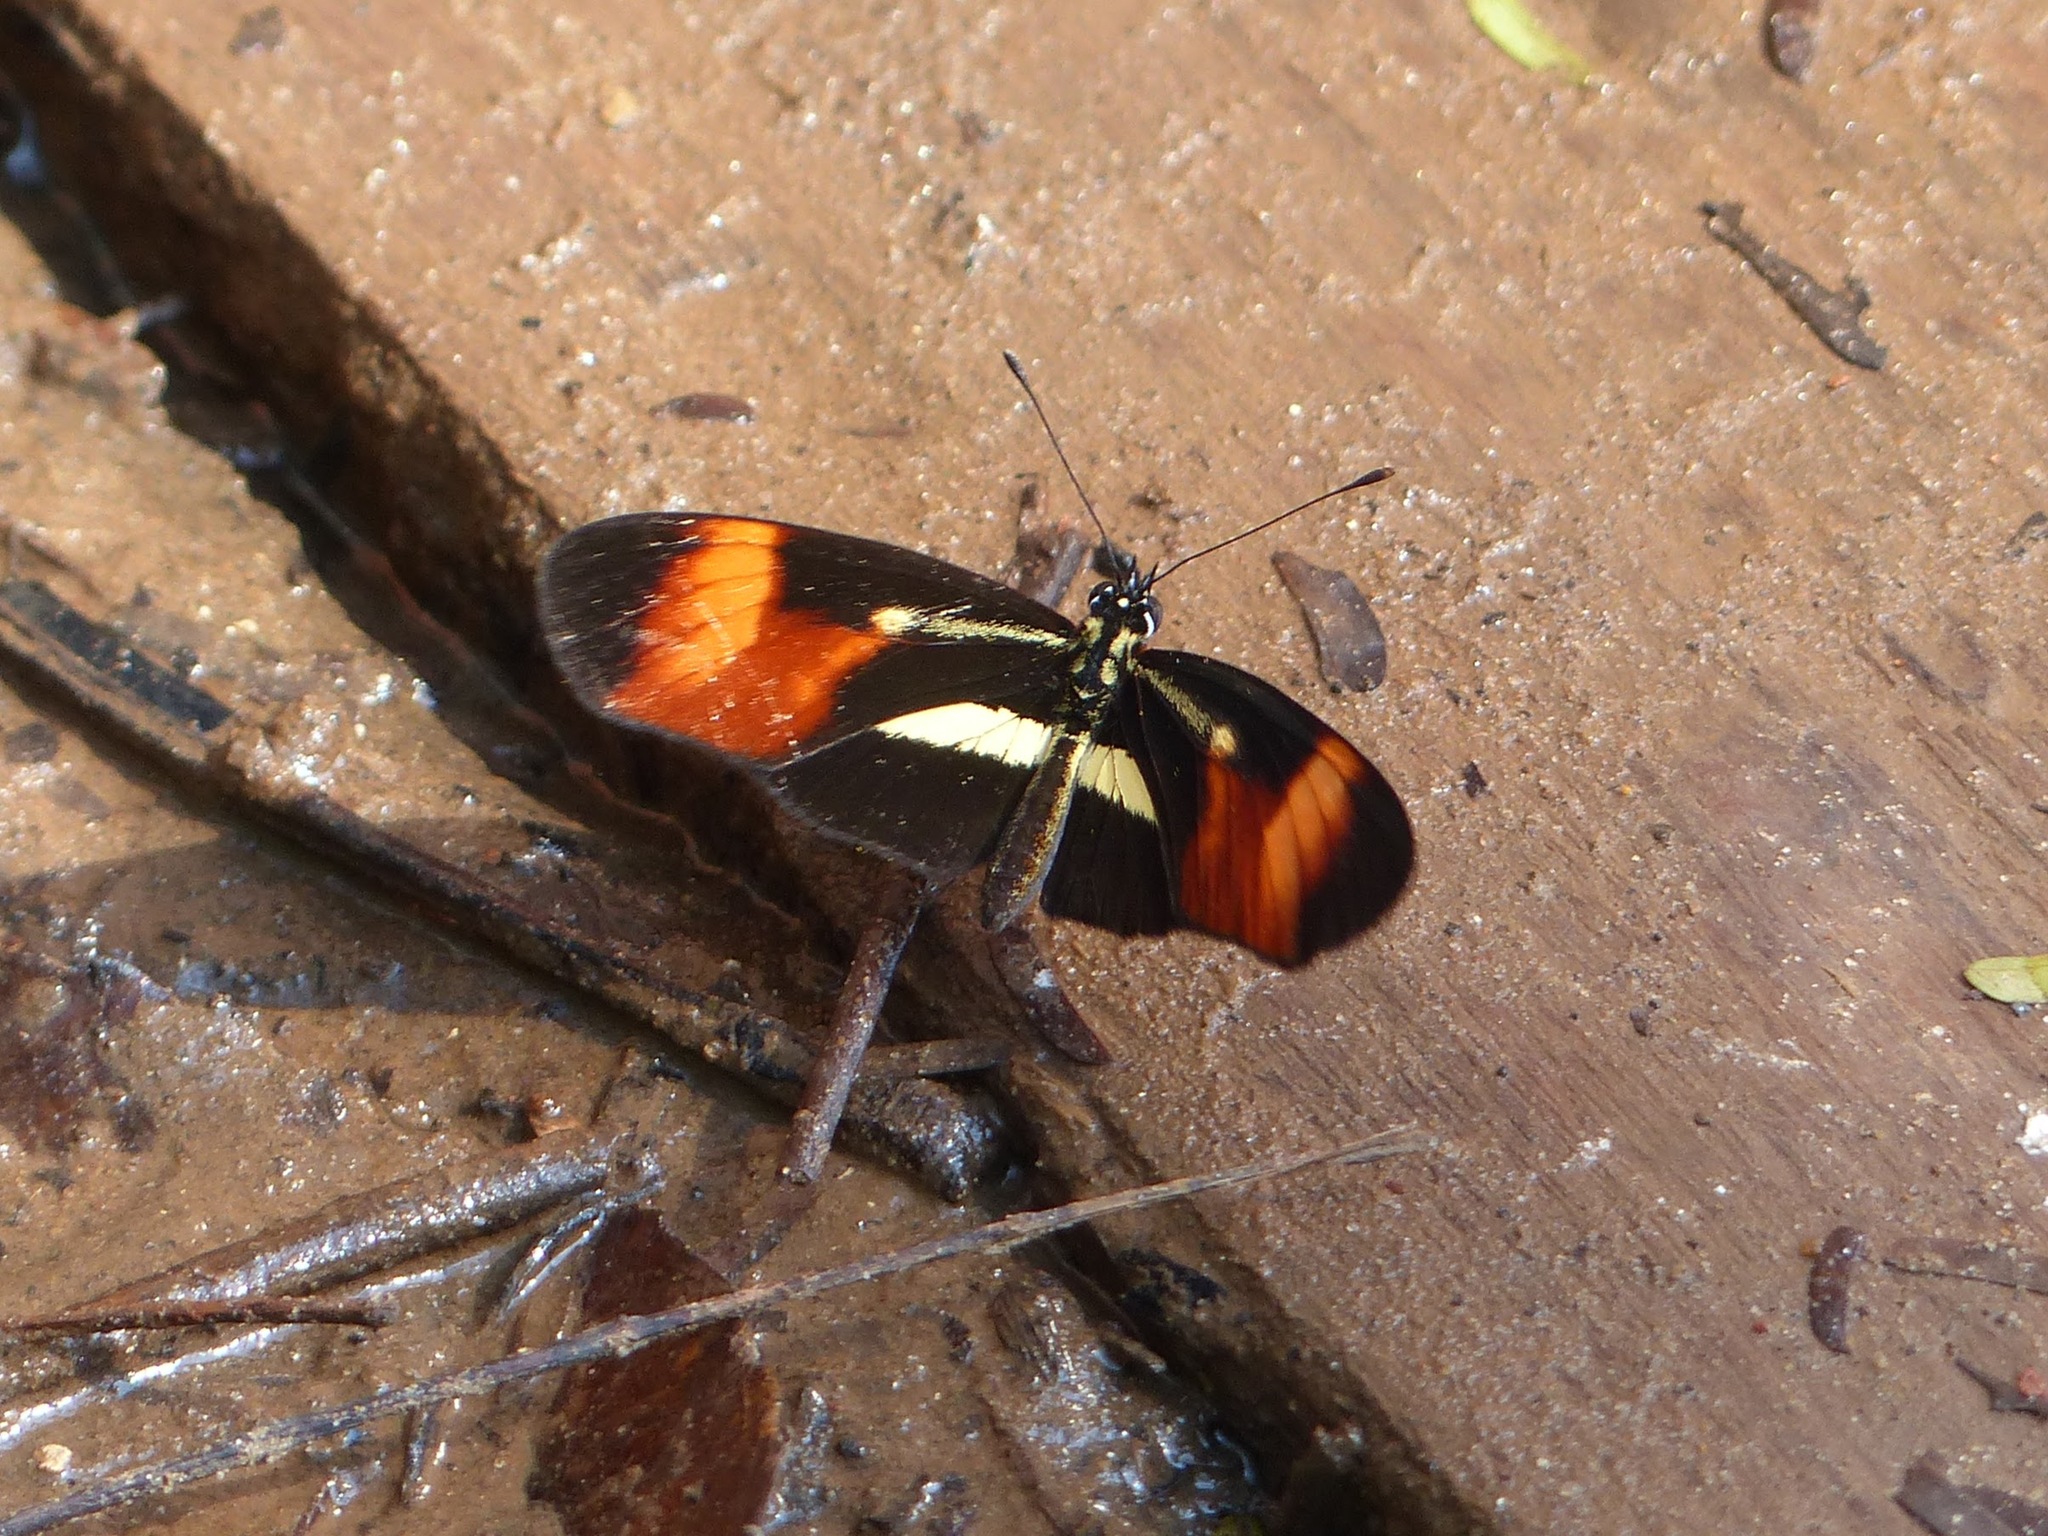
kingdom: Animalia
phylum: Arthropoda
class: Insecta
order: Lepidoptera
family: Nymphalidae
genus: Eresia
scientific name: Eresia lansdorfi
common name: Lansdorf's crescent
